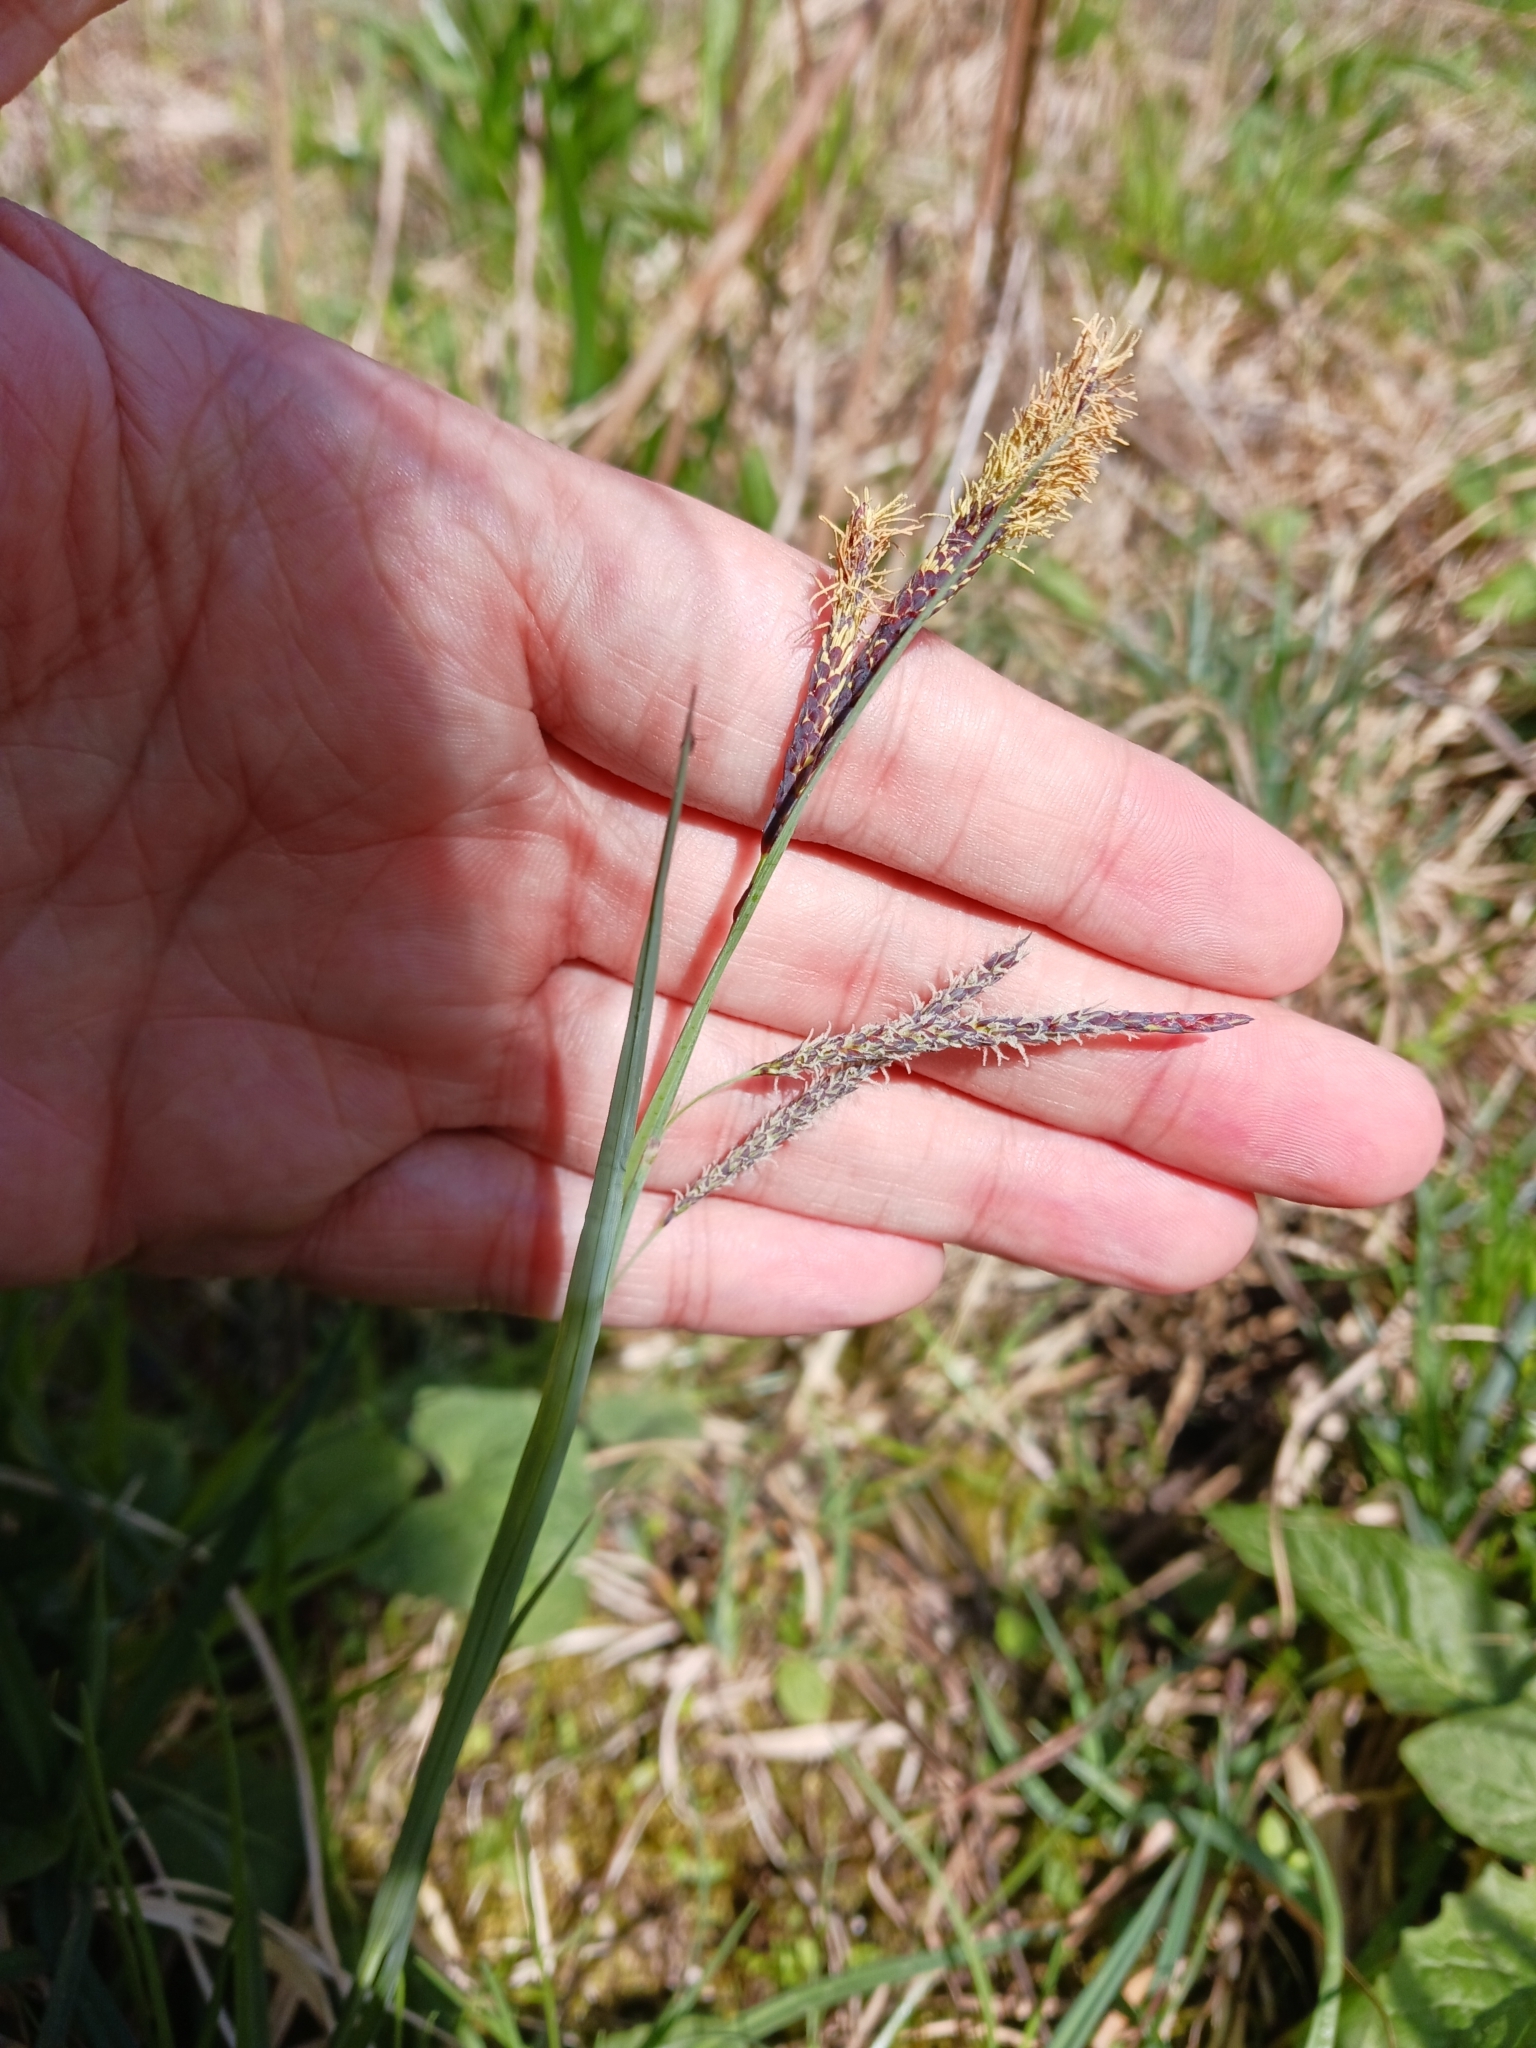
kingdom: Plantae
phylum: Tracheophyta
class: Liliopsida
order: Poales
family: Cyperaceae
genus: Carex
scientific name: Carex flacca
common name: Glaucous sedge
